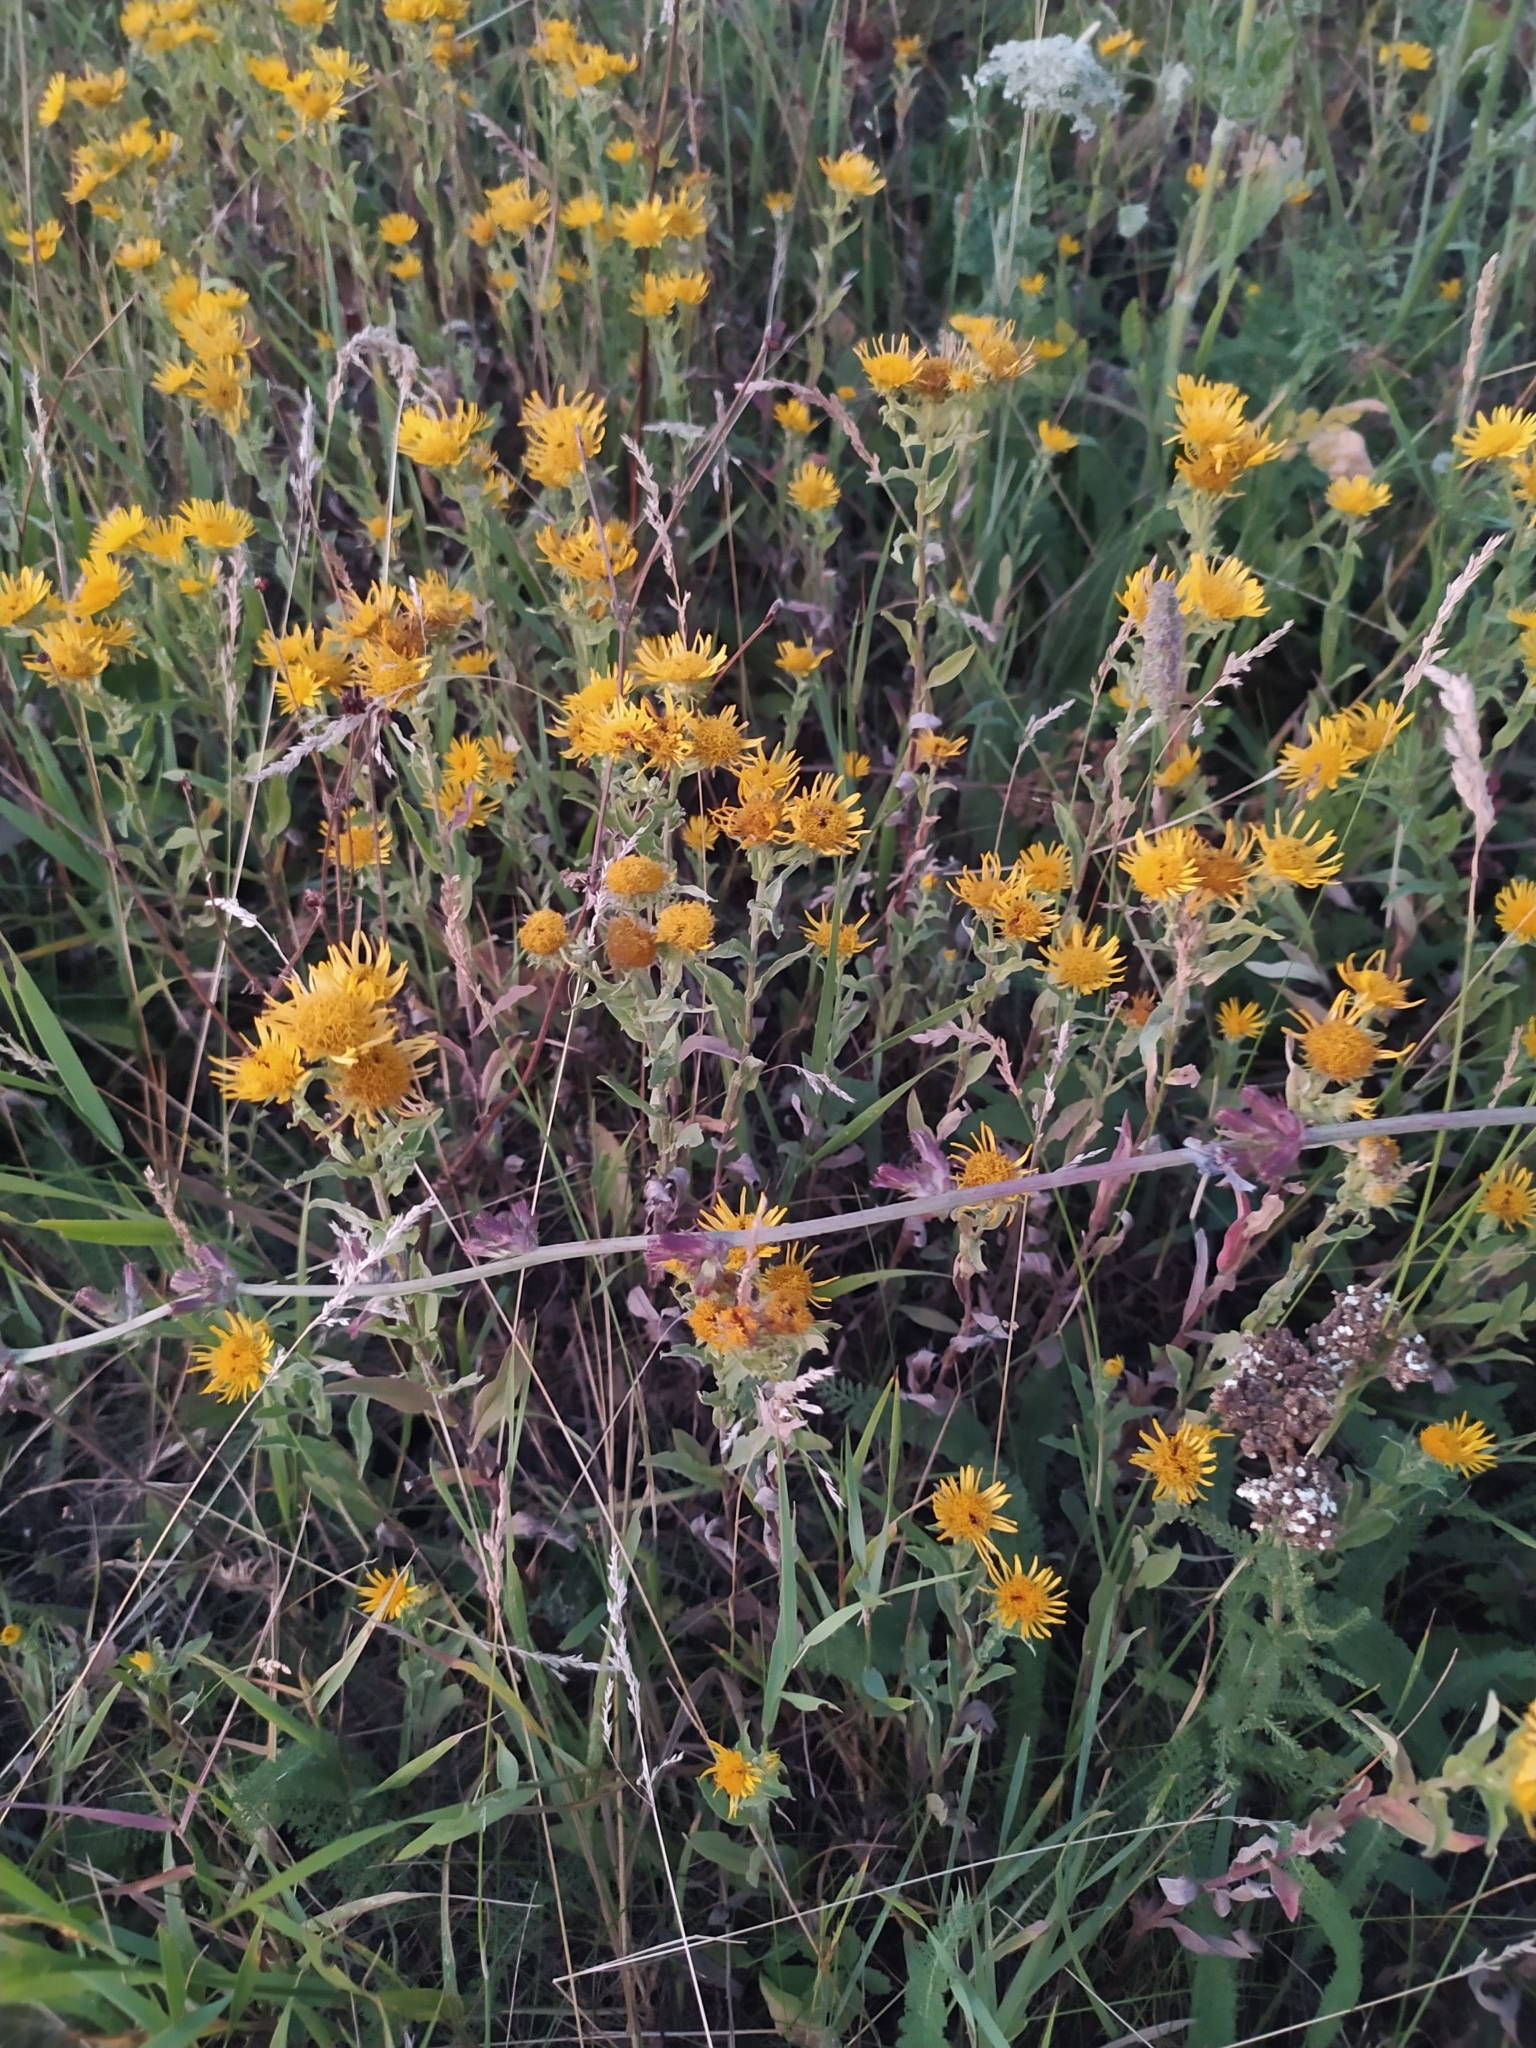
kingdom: Plantae
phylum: Tracheophyta
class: Magnoliopsida
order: Asterales
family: Asteraceae
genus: Pentanema
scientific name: Pentanema britannicum
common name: British elecampane
